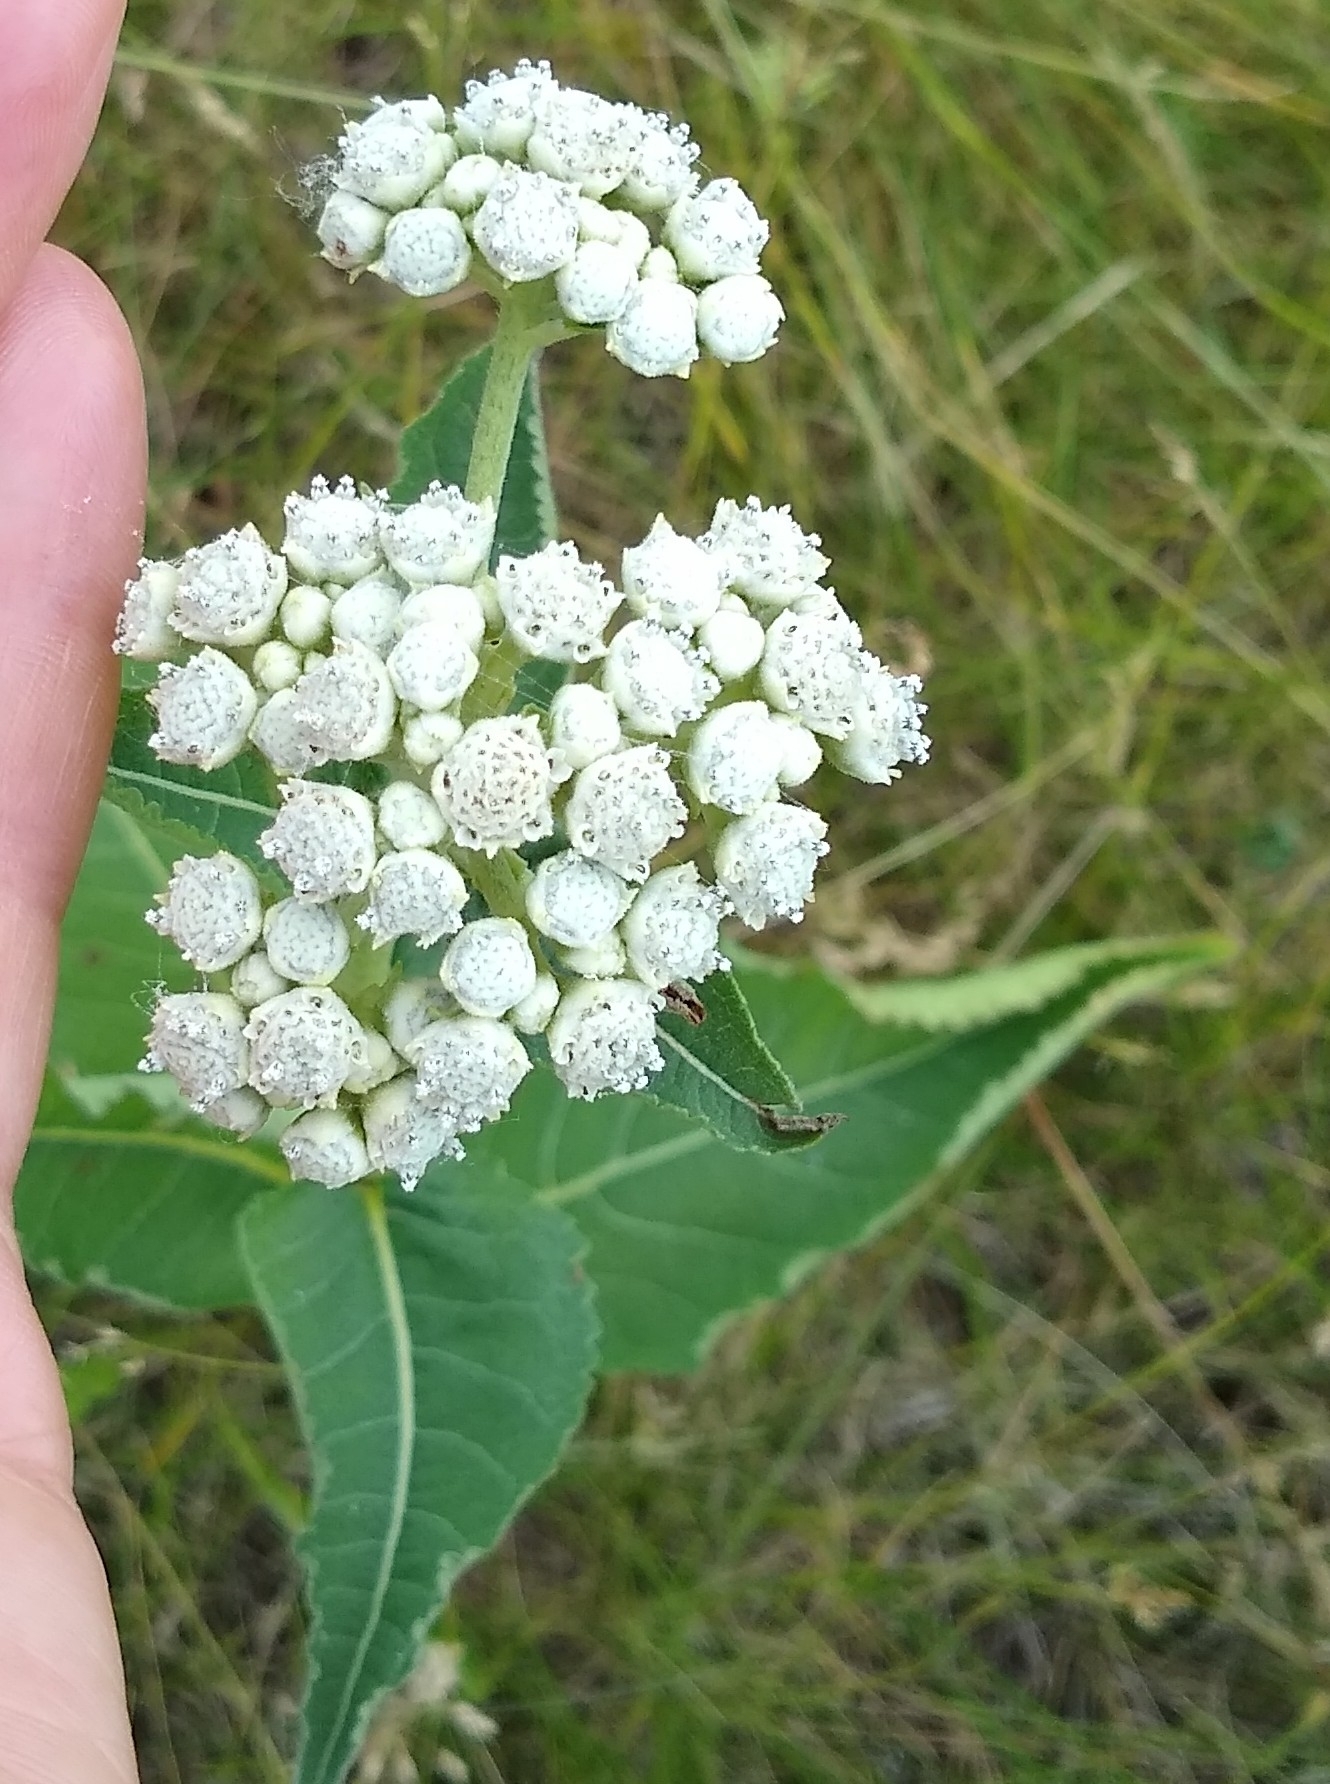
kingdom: Plantae
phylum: Tracheophyta
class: Magnoliopsida
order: Asterales
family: Asteraceae
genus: Parthenium
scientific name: Parthenium integrifolium
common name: American feverfew
